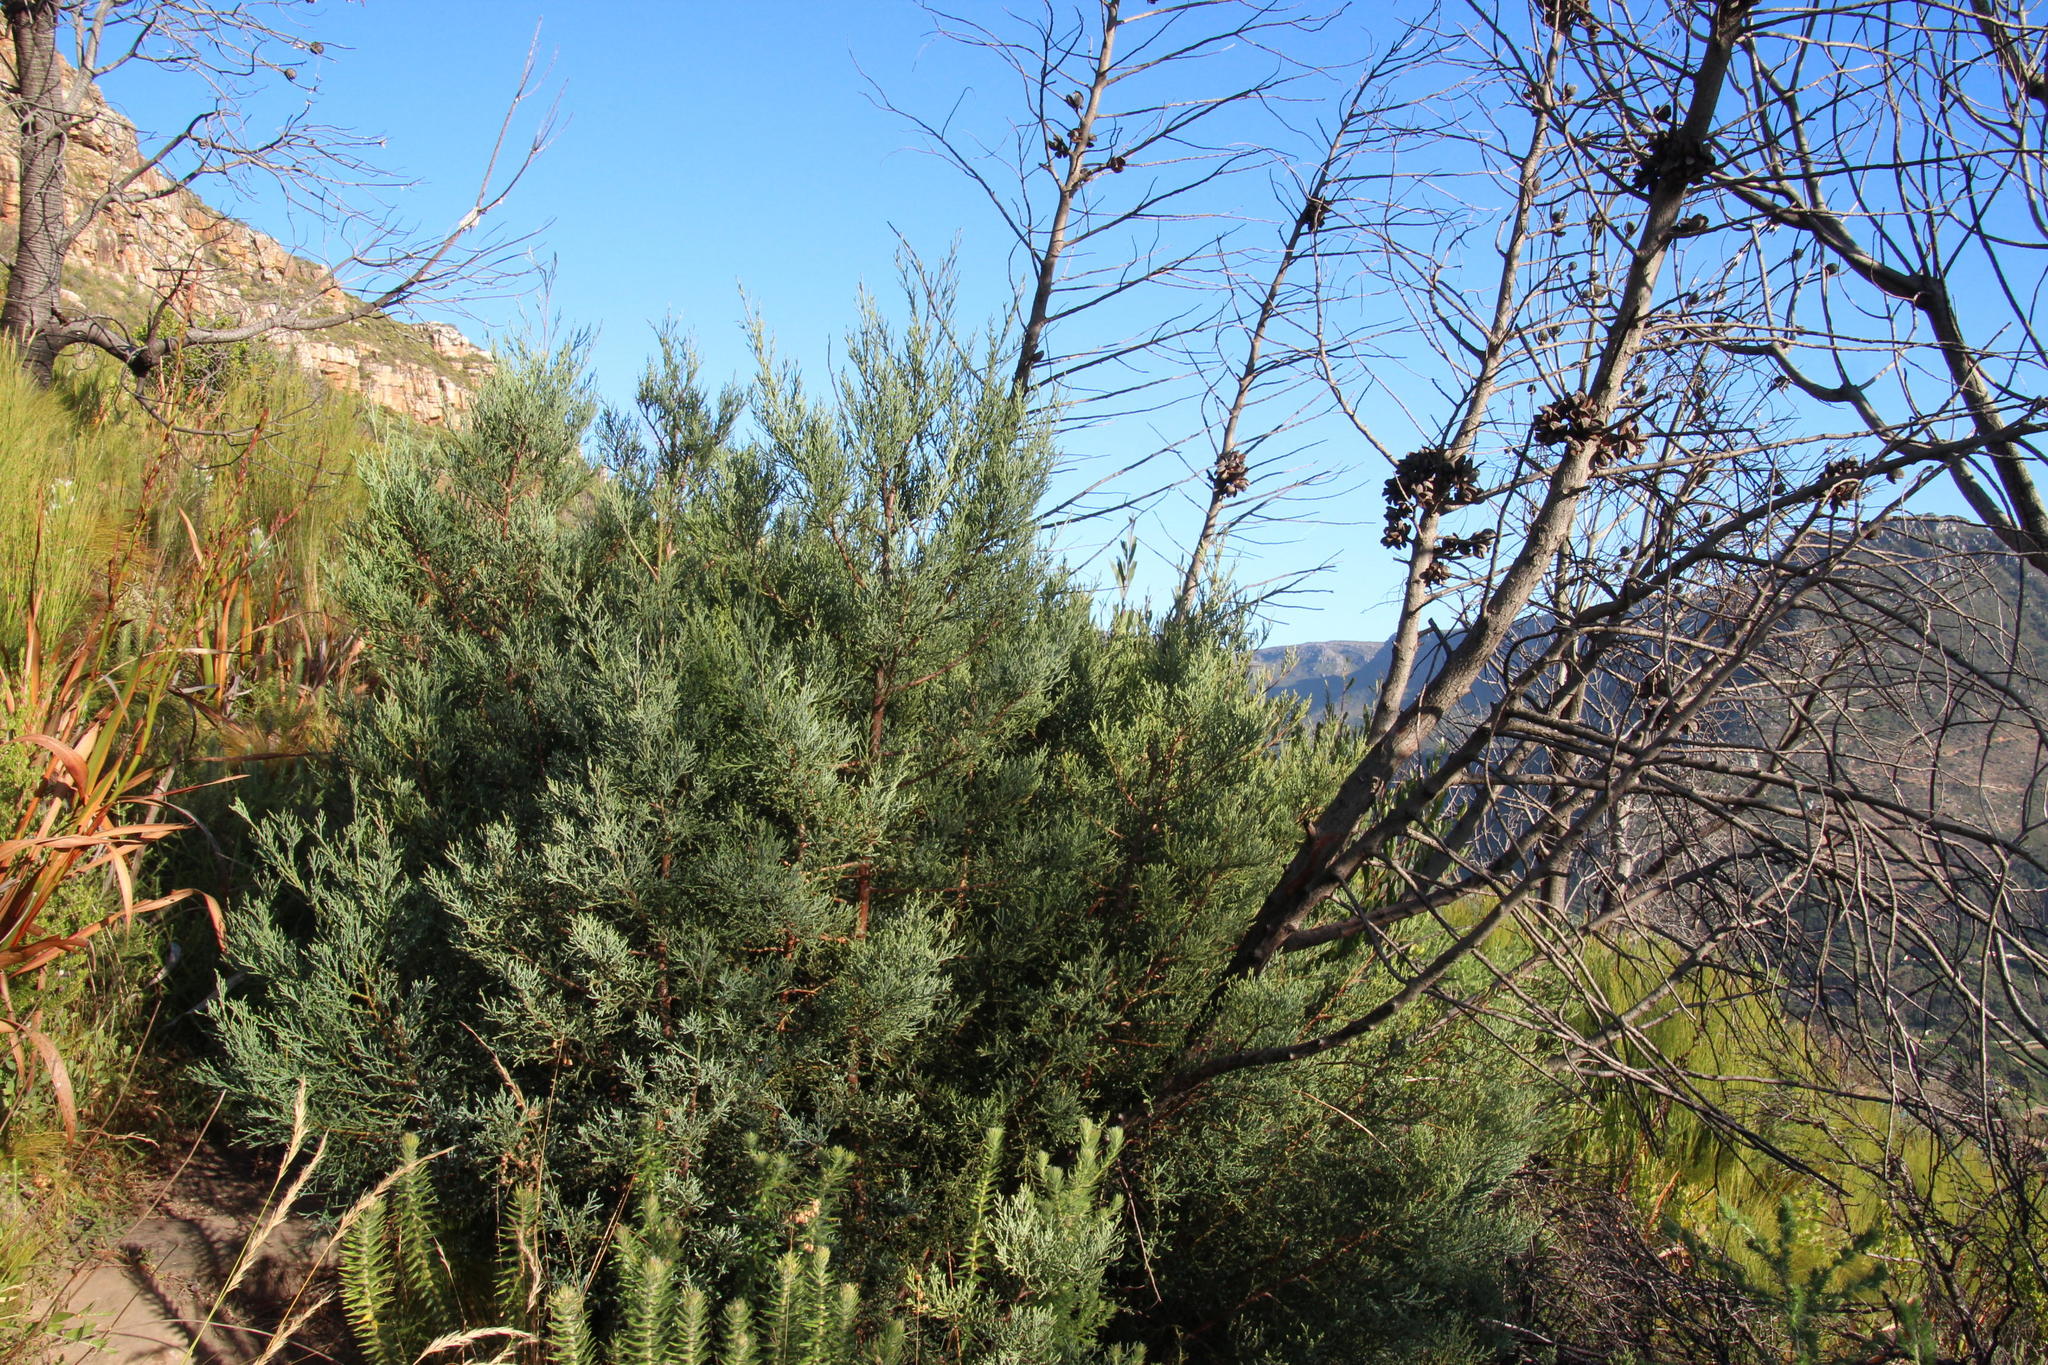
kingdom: Plantae
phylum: Tracheophyta
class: Pinopsida
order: Pinales
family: Cupressaceae
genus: Widdringtonia
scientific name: Widdringtonia nodiflora
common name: Cape cypress
